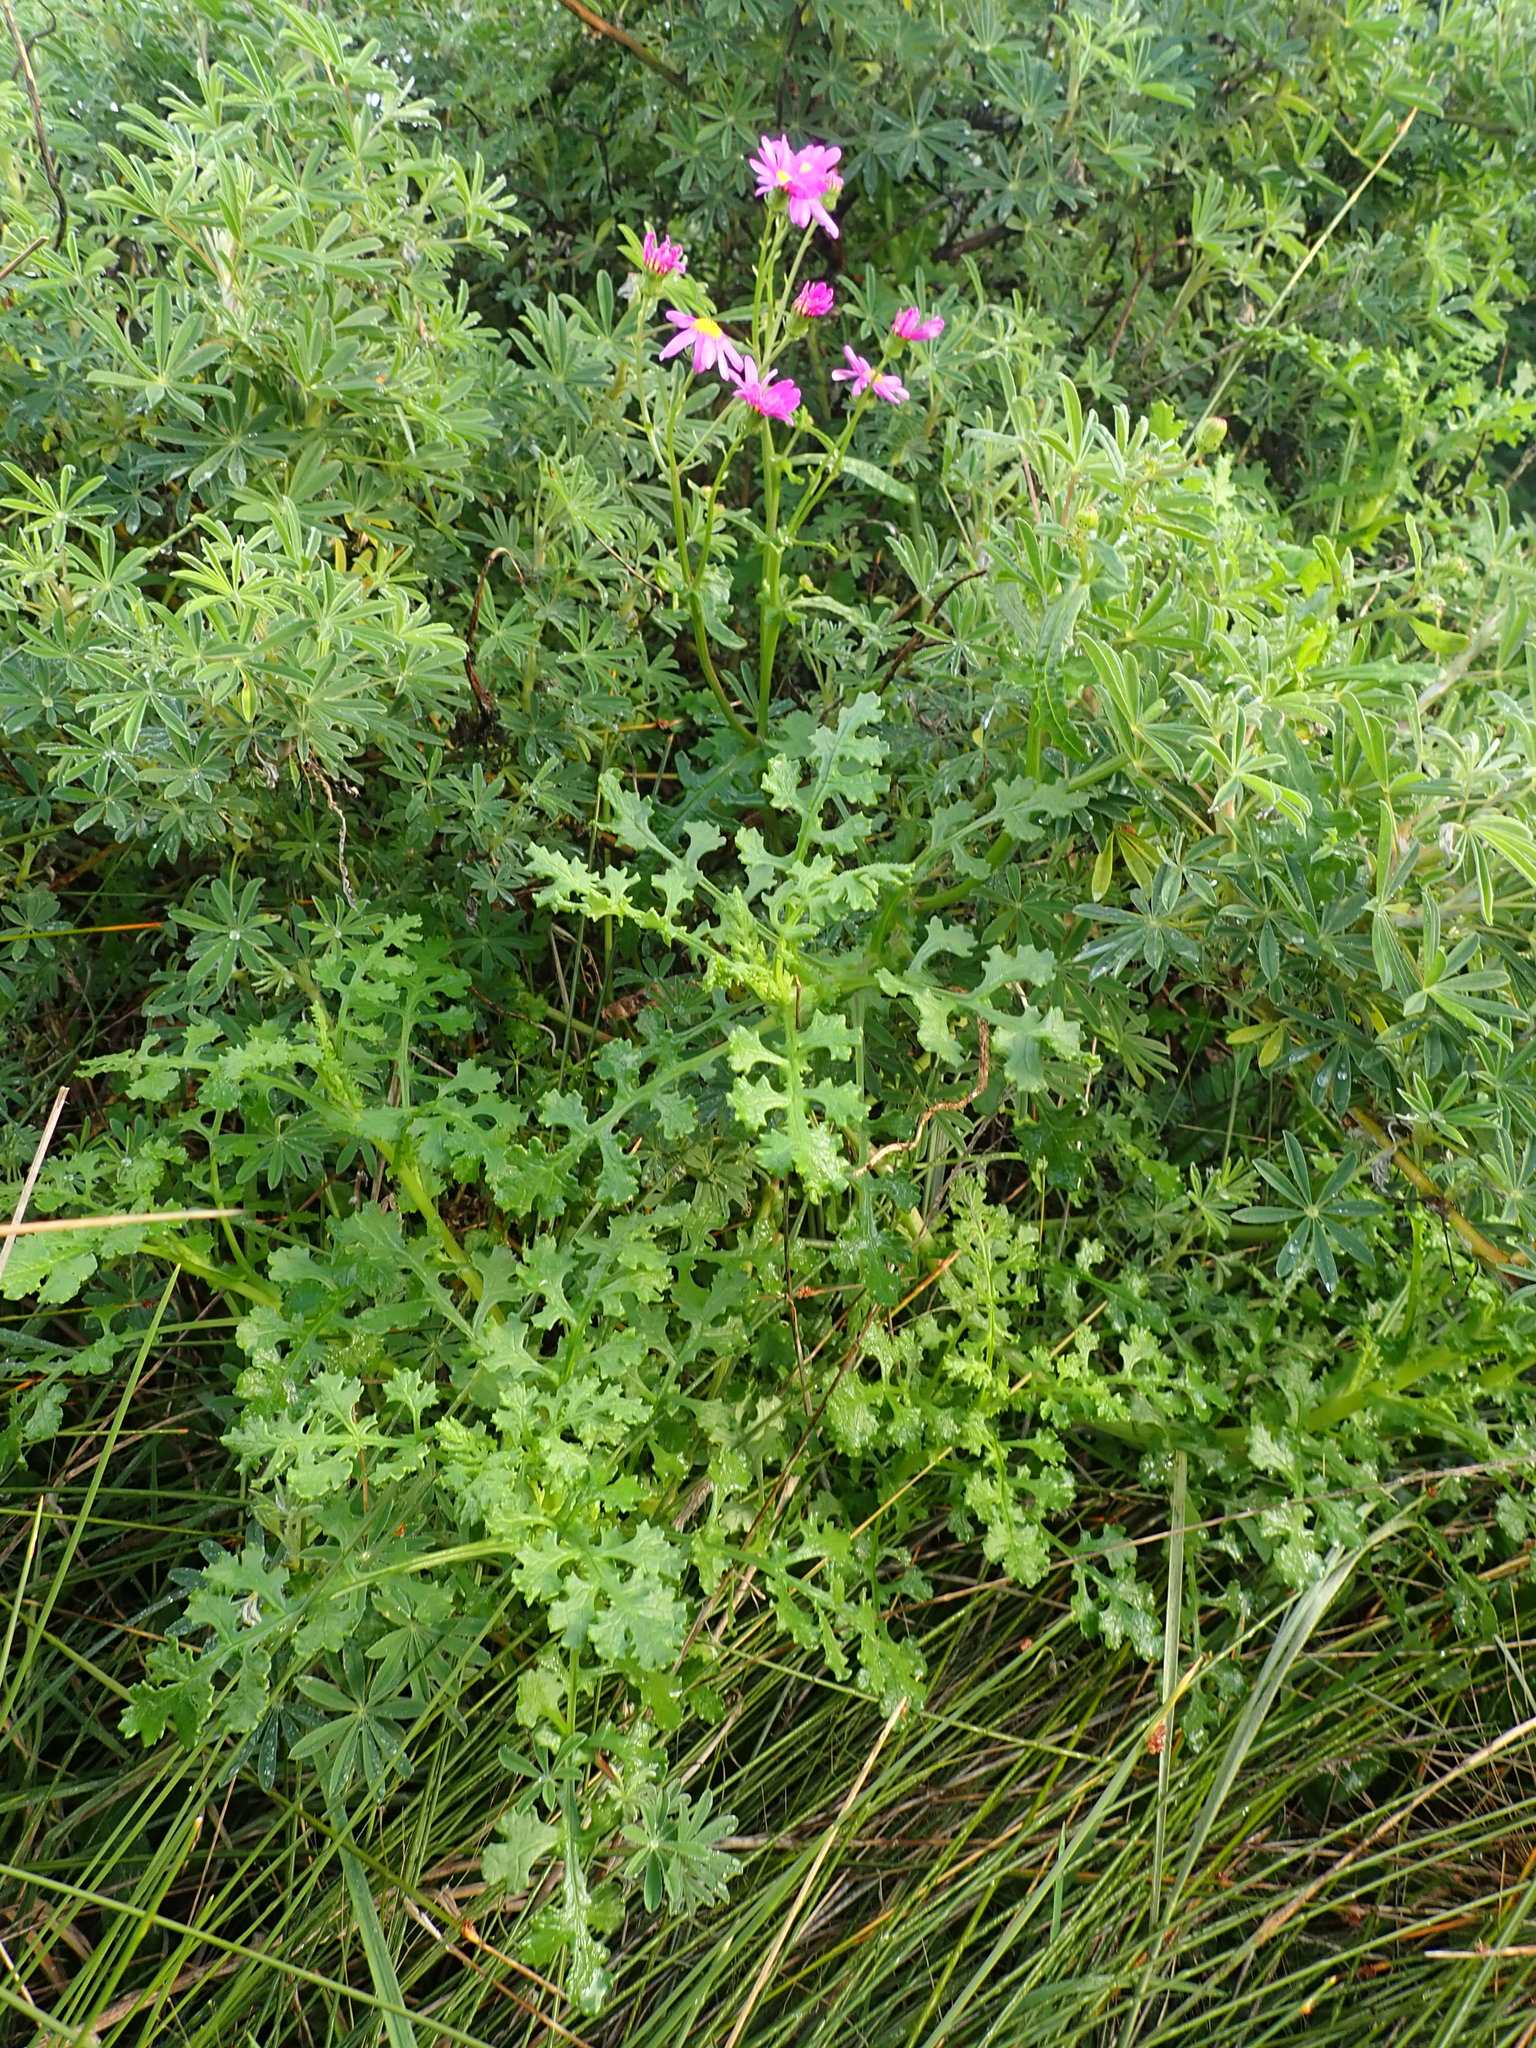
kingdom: Plantae
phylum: Tracheophyta
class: Magnoliopsida
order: Asterales
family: Asteraceae
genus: Senecio
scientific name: Senecio elegans
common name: Purple groundsel
